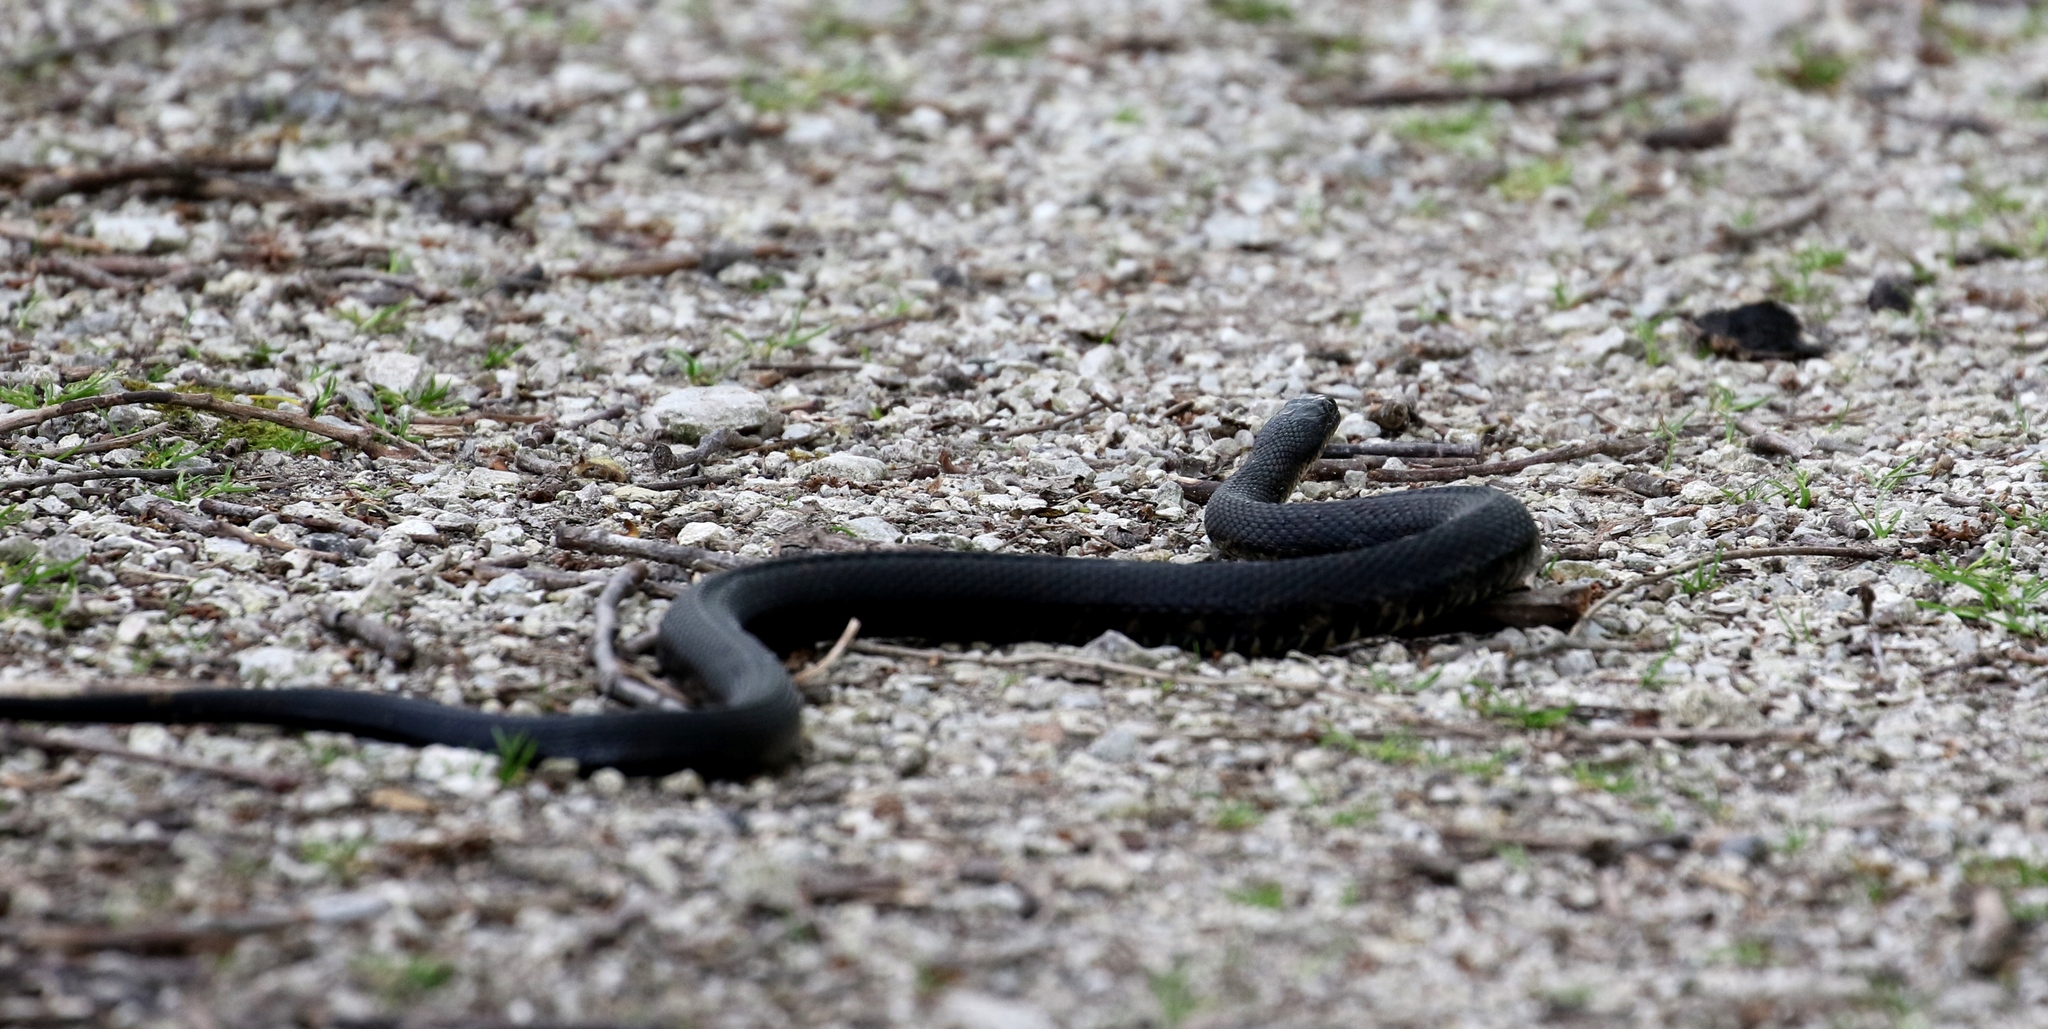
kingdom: Animalia
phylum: Chordata
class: Squamata
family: Colubridae
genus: Nerodia
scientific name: Nerodia sipedon
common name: Northern water snake
